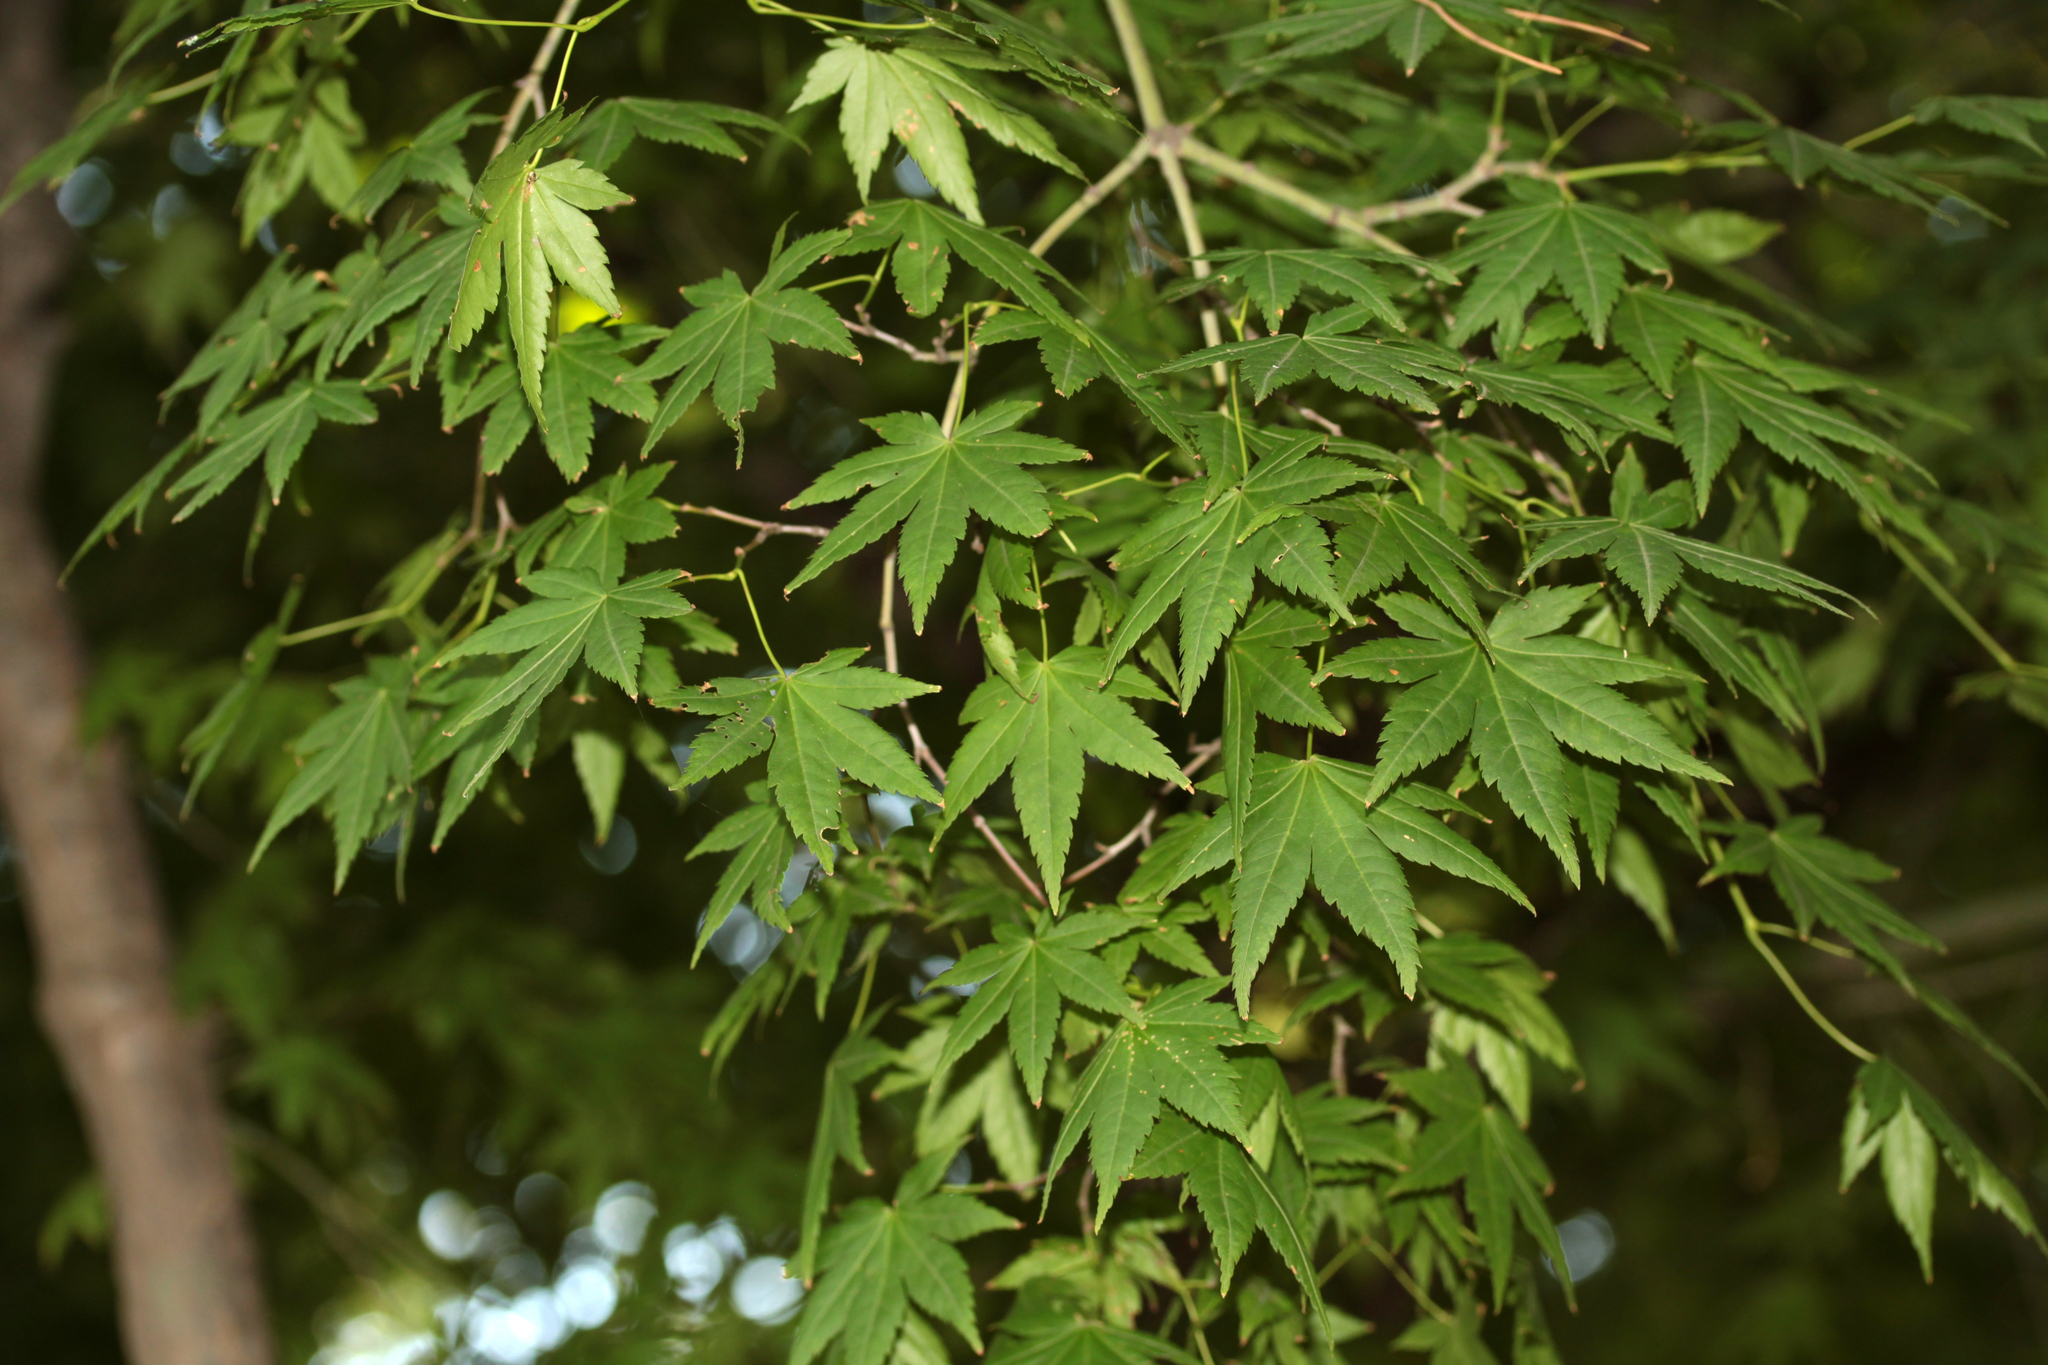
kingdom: Plantae
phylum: Tracheophyta
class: Magnoliopsida
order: Sapindales
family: Sapindaceae
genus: Acer
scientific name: Acer palmatum
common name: Japanese maple
